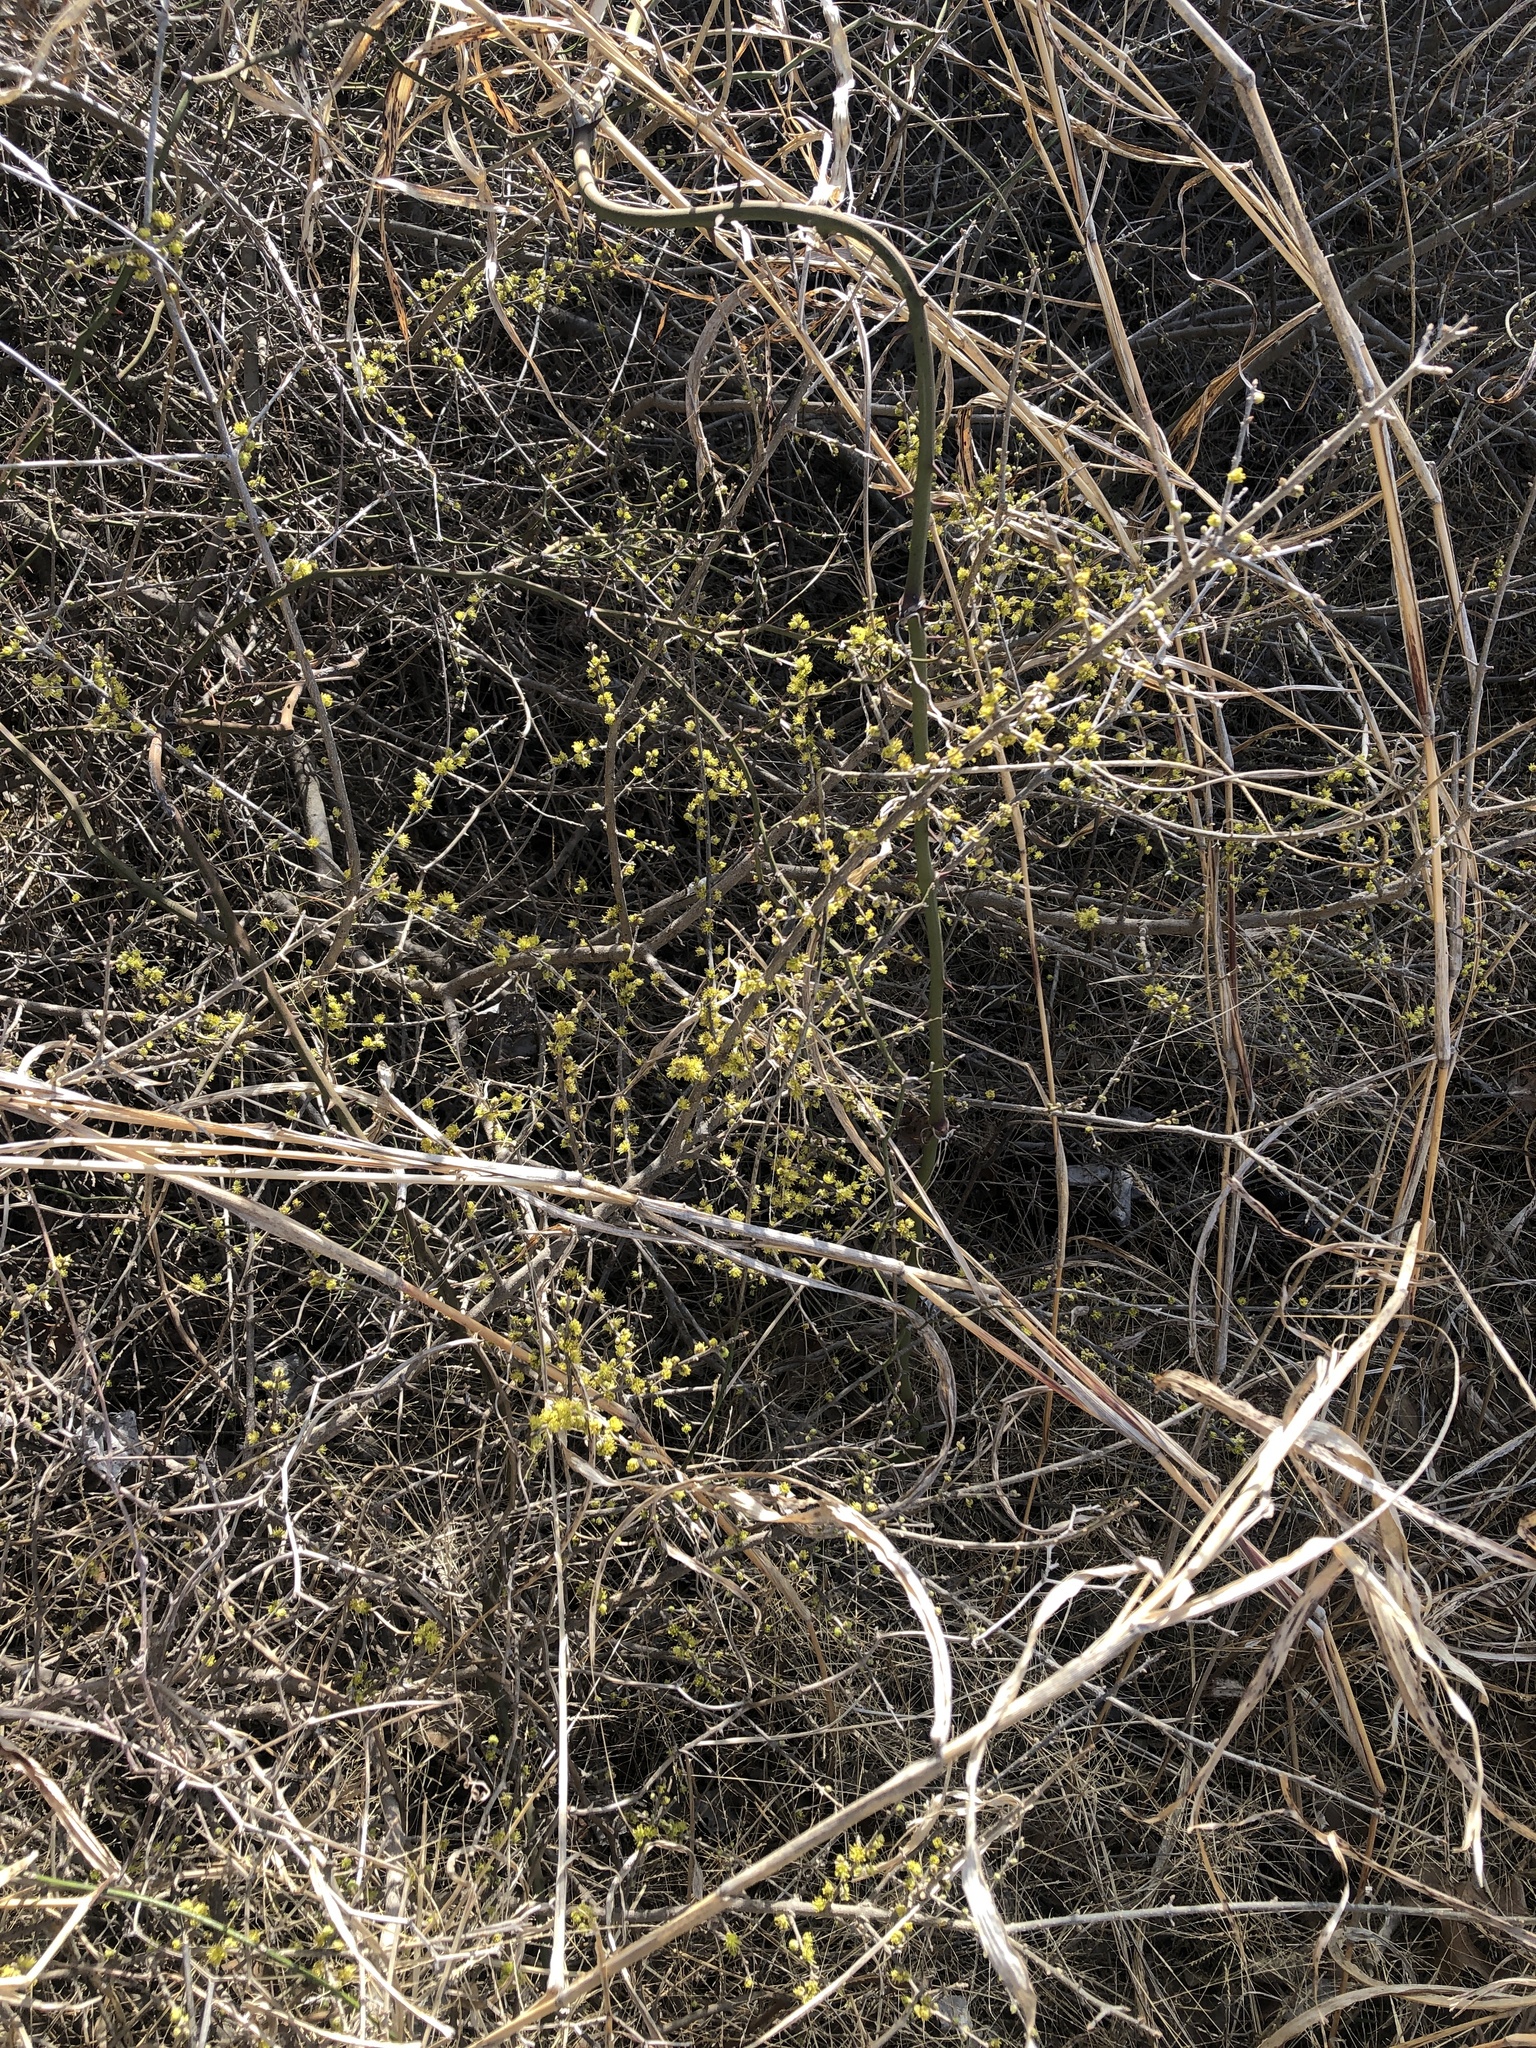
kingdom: Plantae
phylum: Tracheophyta
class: Magnoliopsida
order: Lamiales
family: Oleaceae
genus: Forestiera
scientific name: Forestiera pubescens
